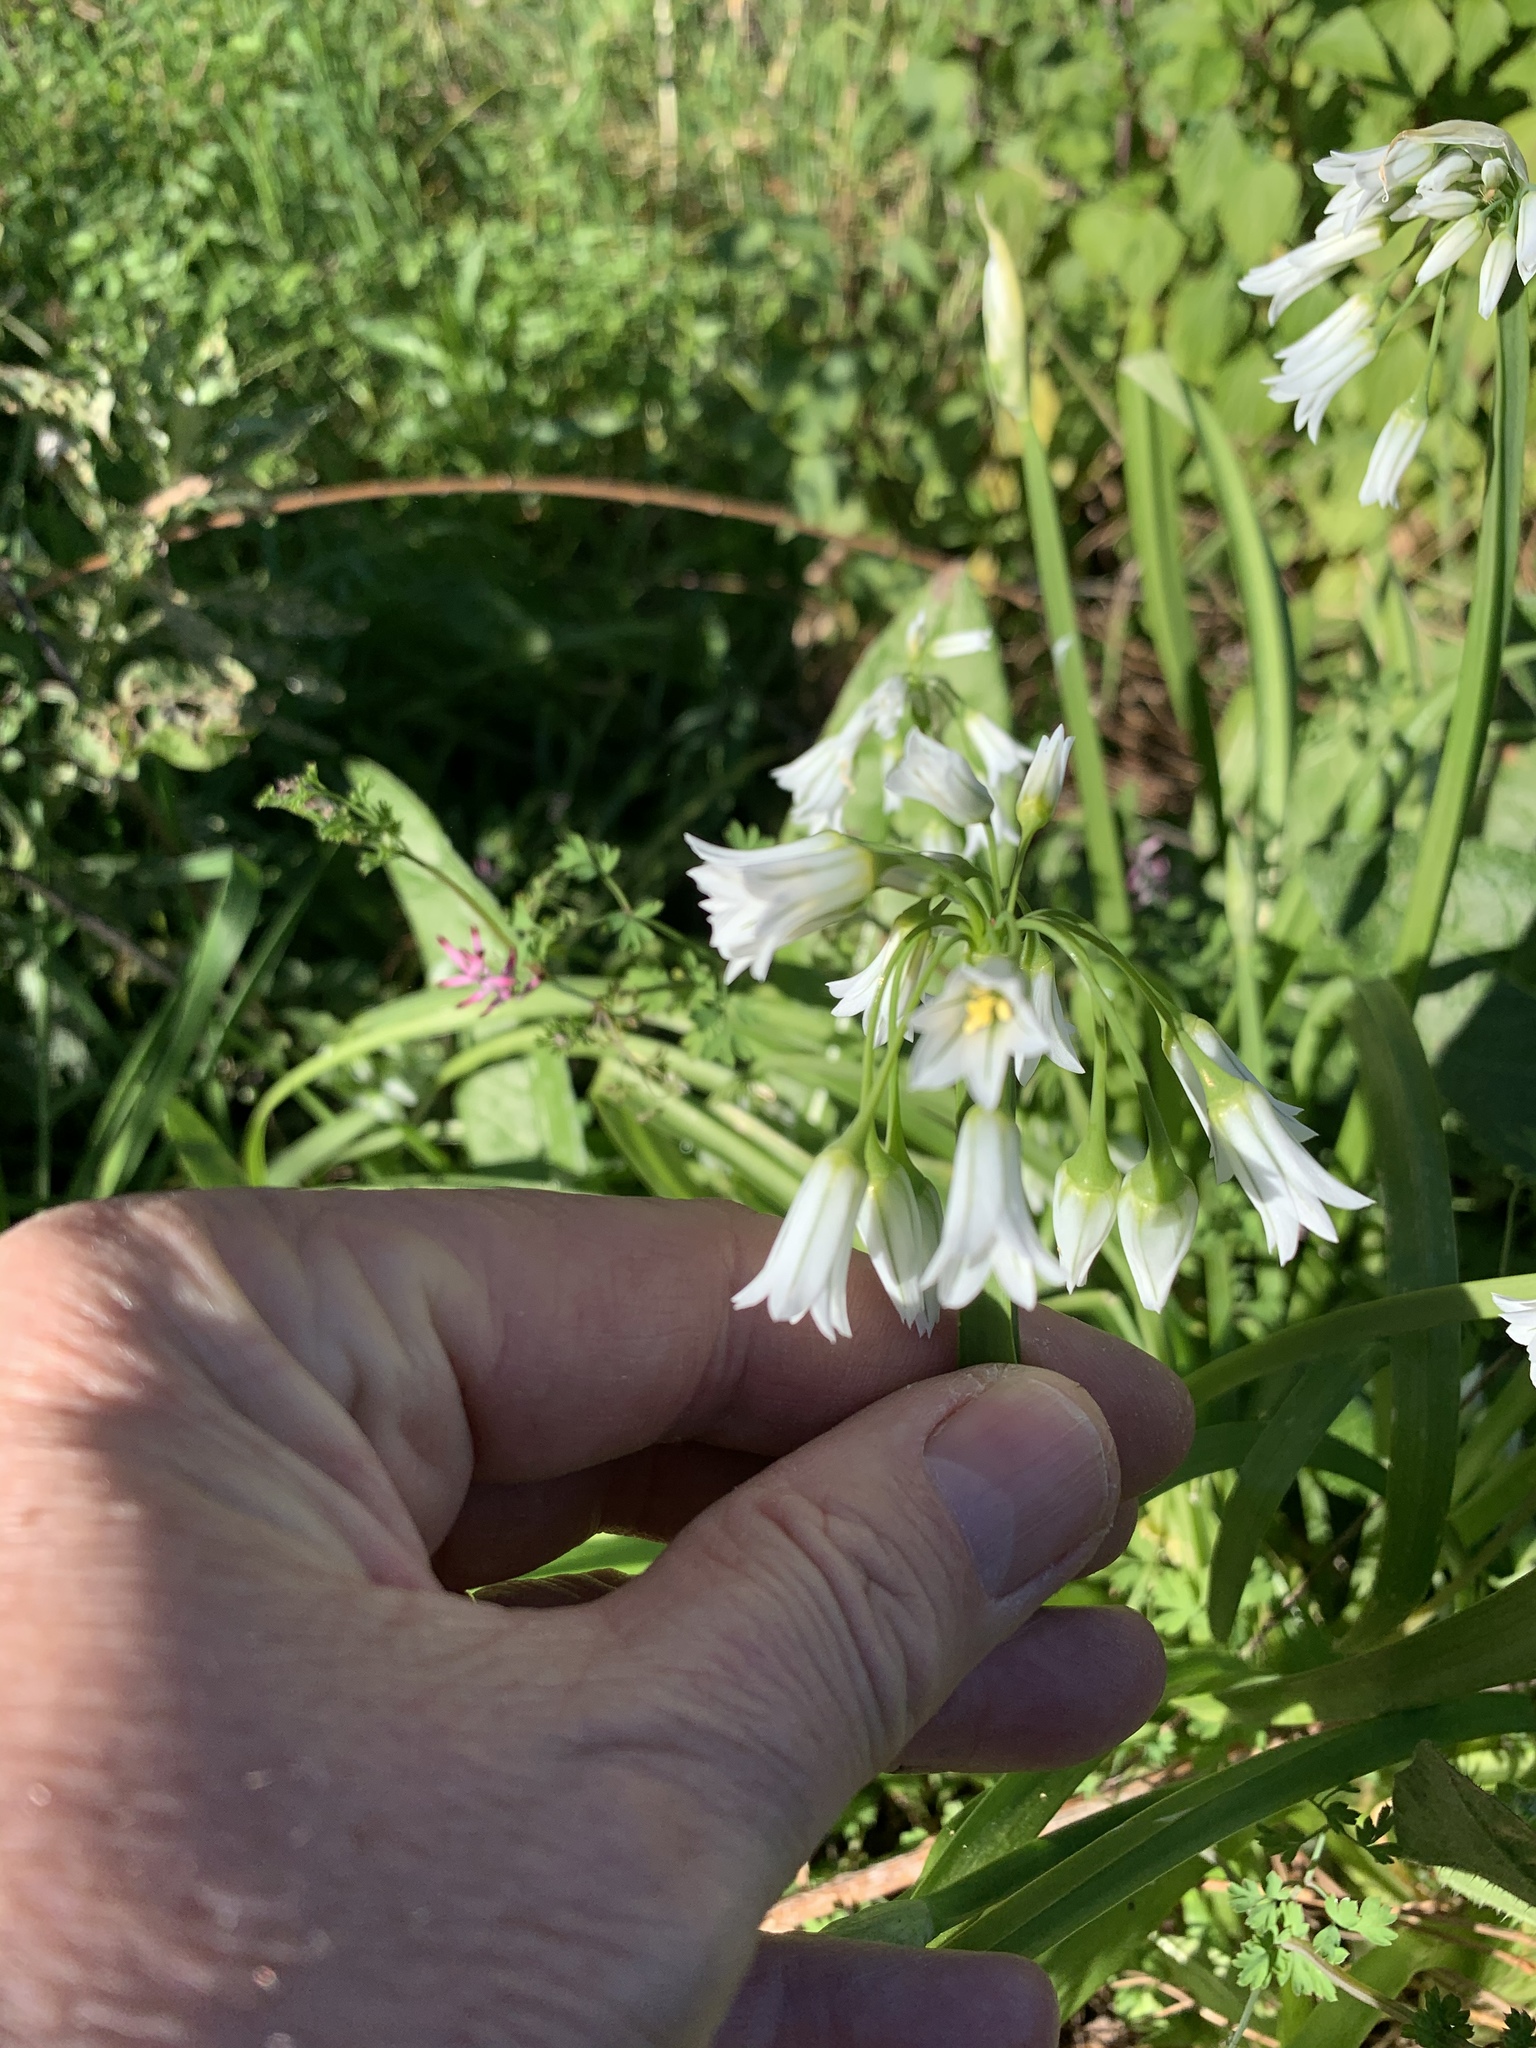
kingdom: Plantae
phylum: Tracheophyta
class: Liliopsida
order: Asparagales
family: Amaryllidaceae
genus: Allium
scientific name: Allium triquetrum
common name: Three-cornered garlic
